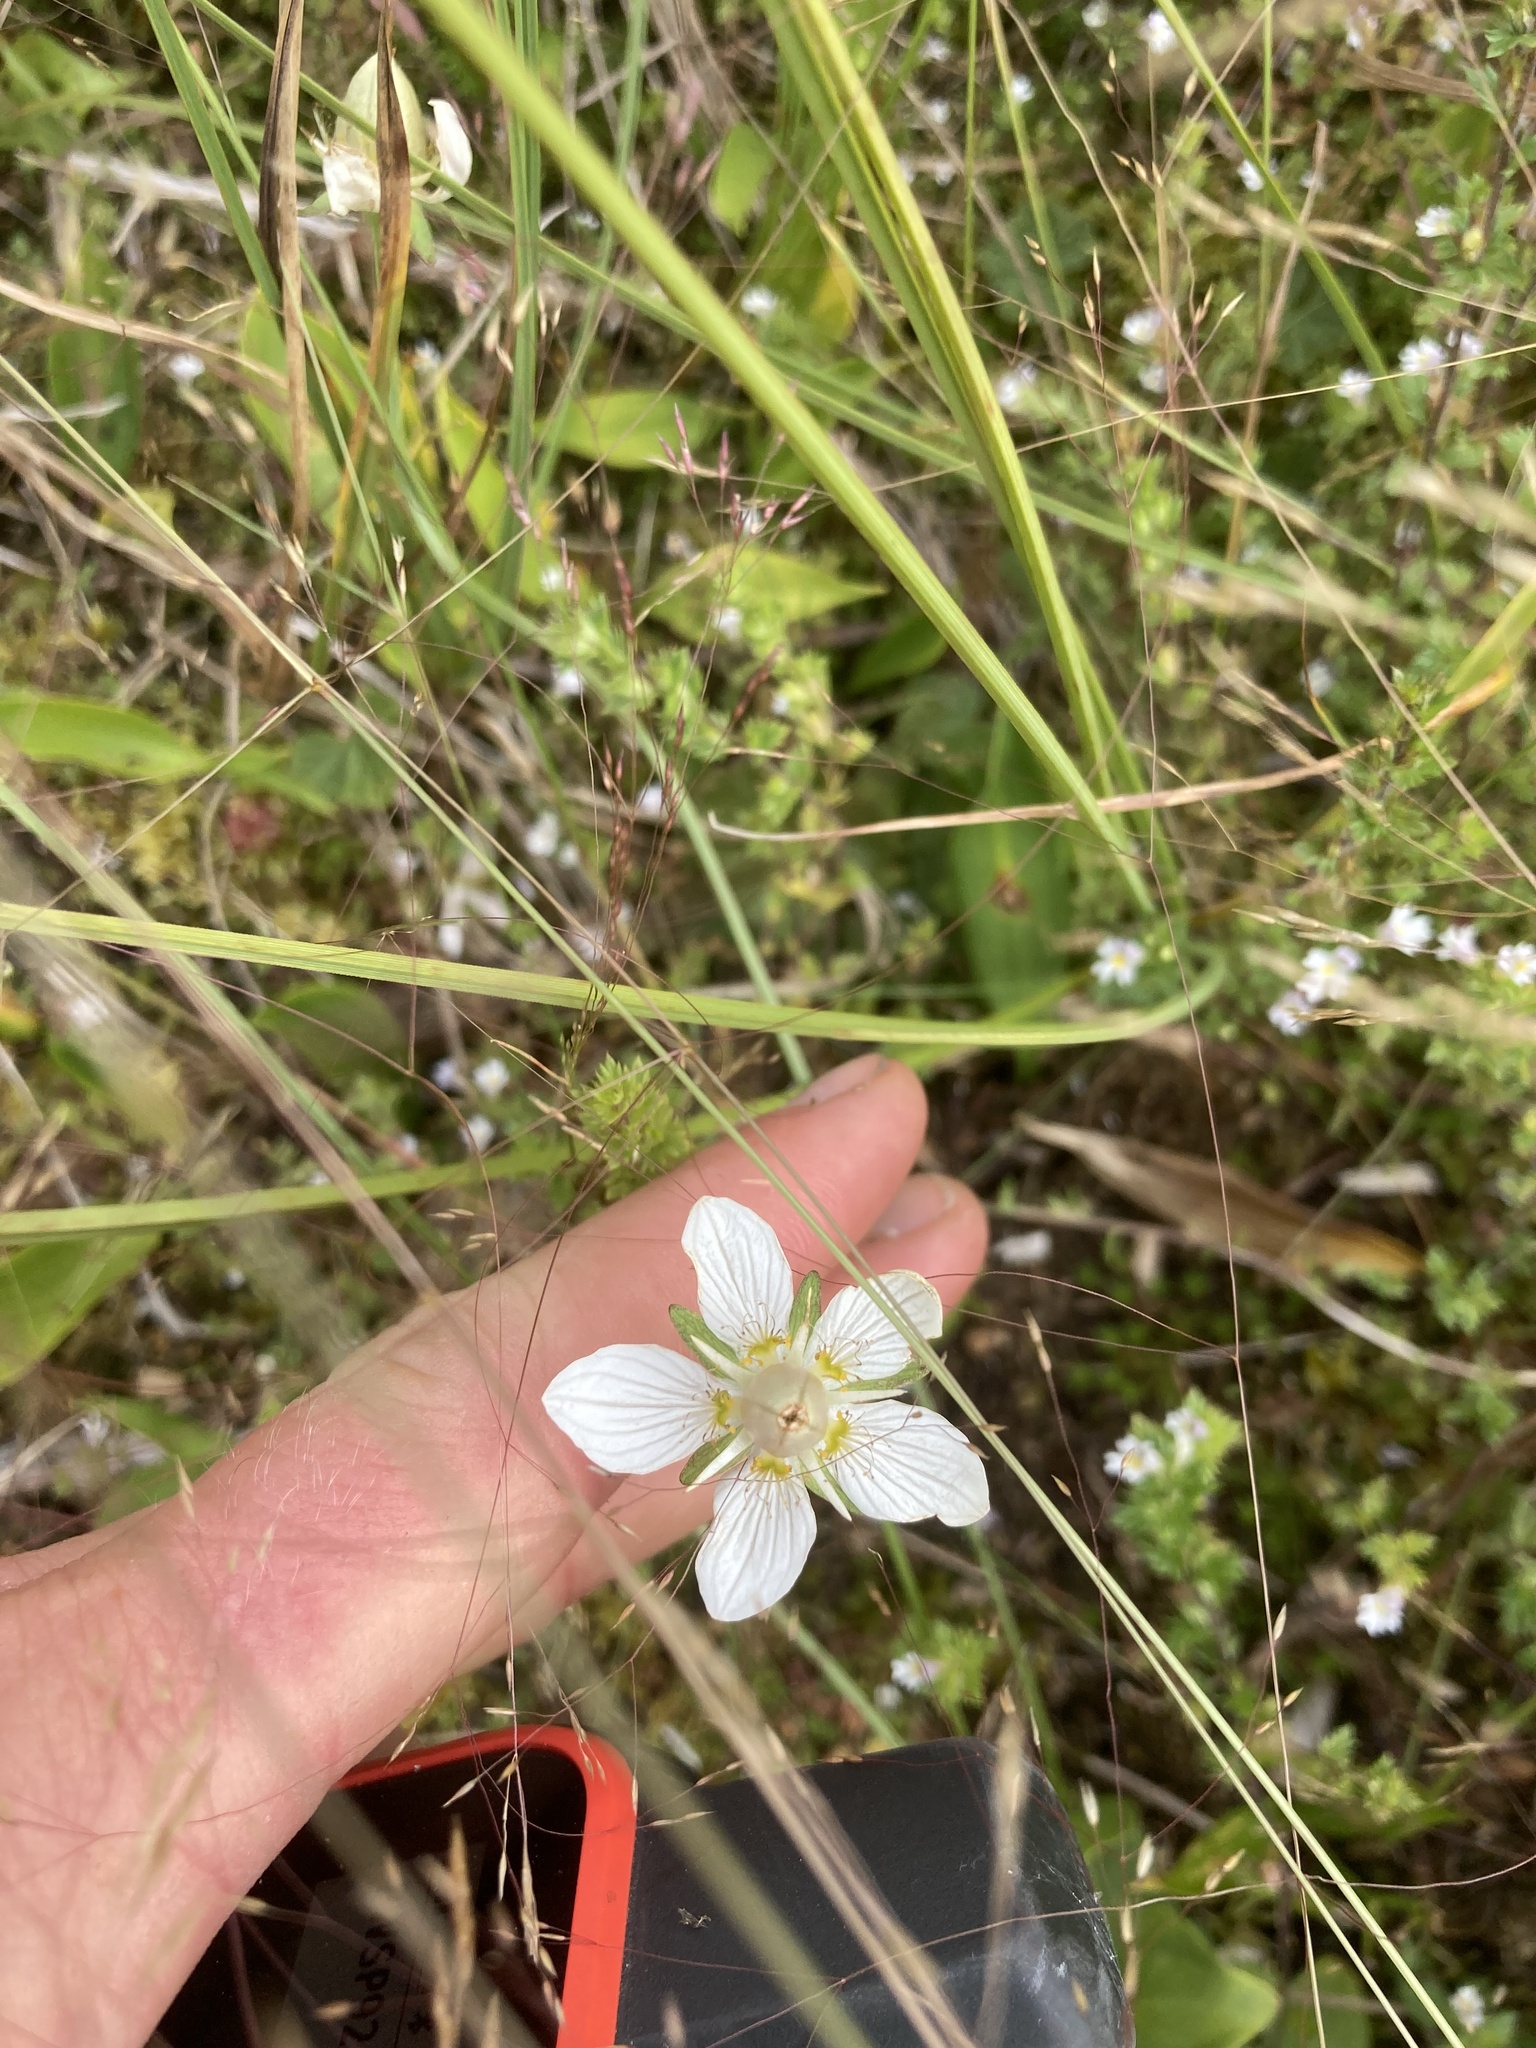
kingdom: Plantae
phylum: Tracheophyta
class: Magnoliopsida
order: Celastrales
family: Parnassiaceae
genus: Parnassia
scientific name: Parnassia palustris
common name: Grass-of-parnassus
